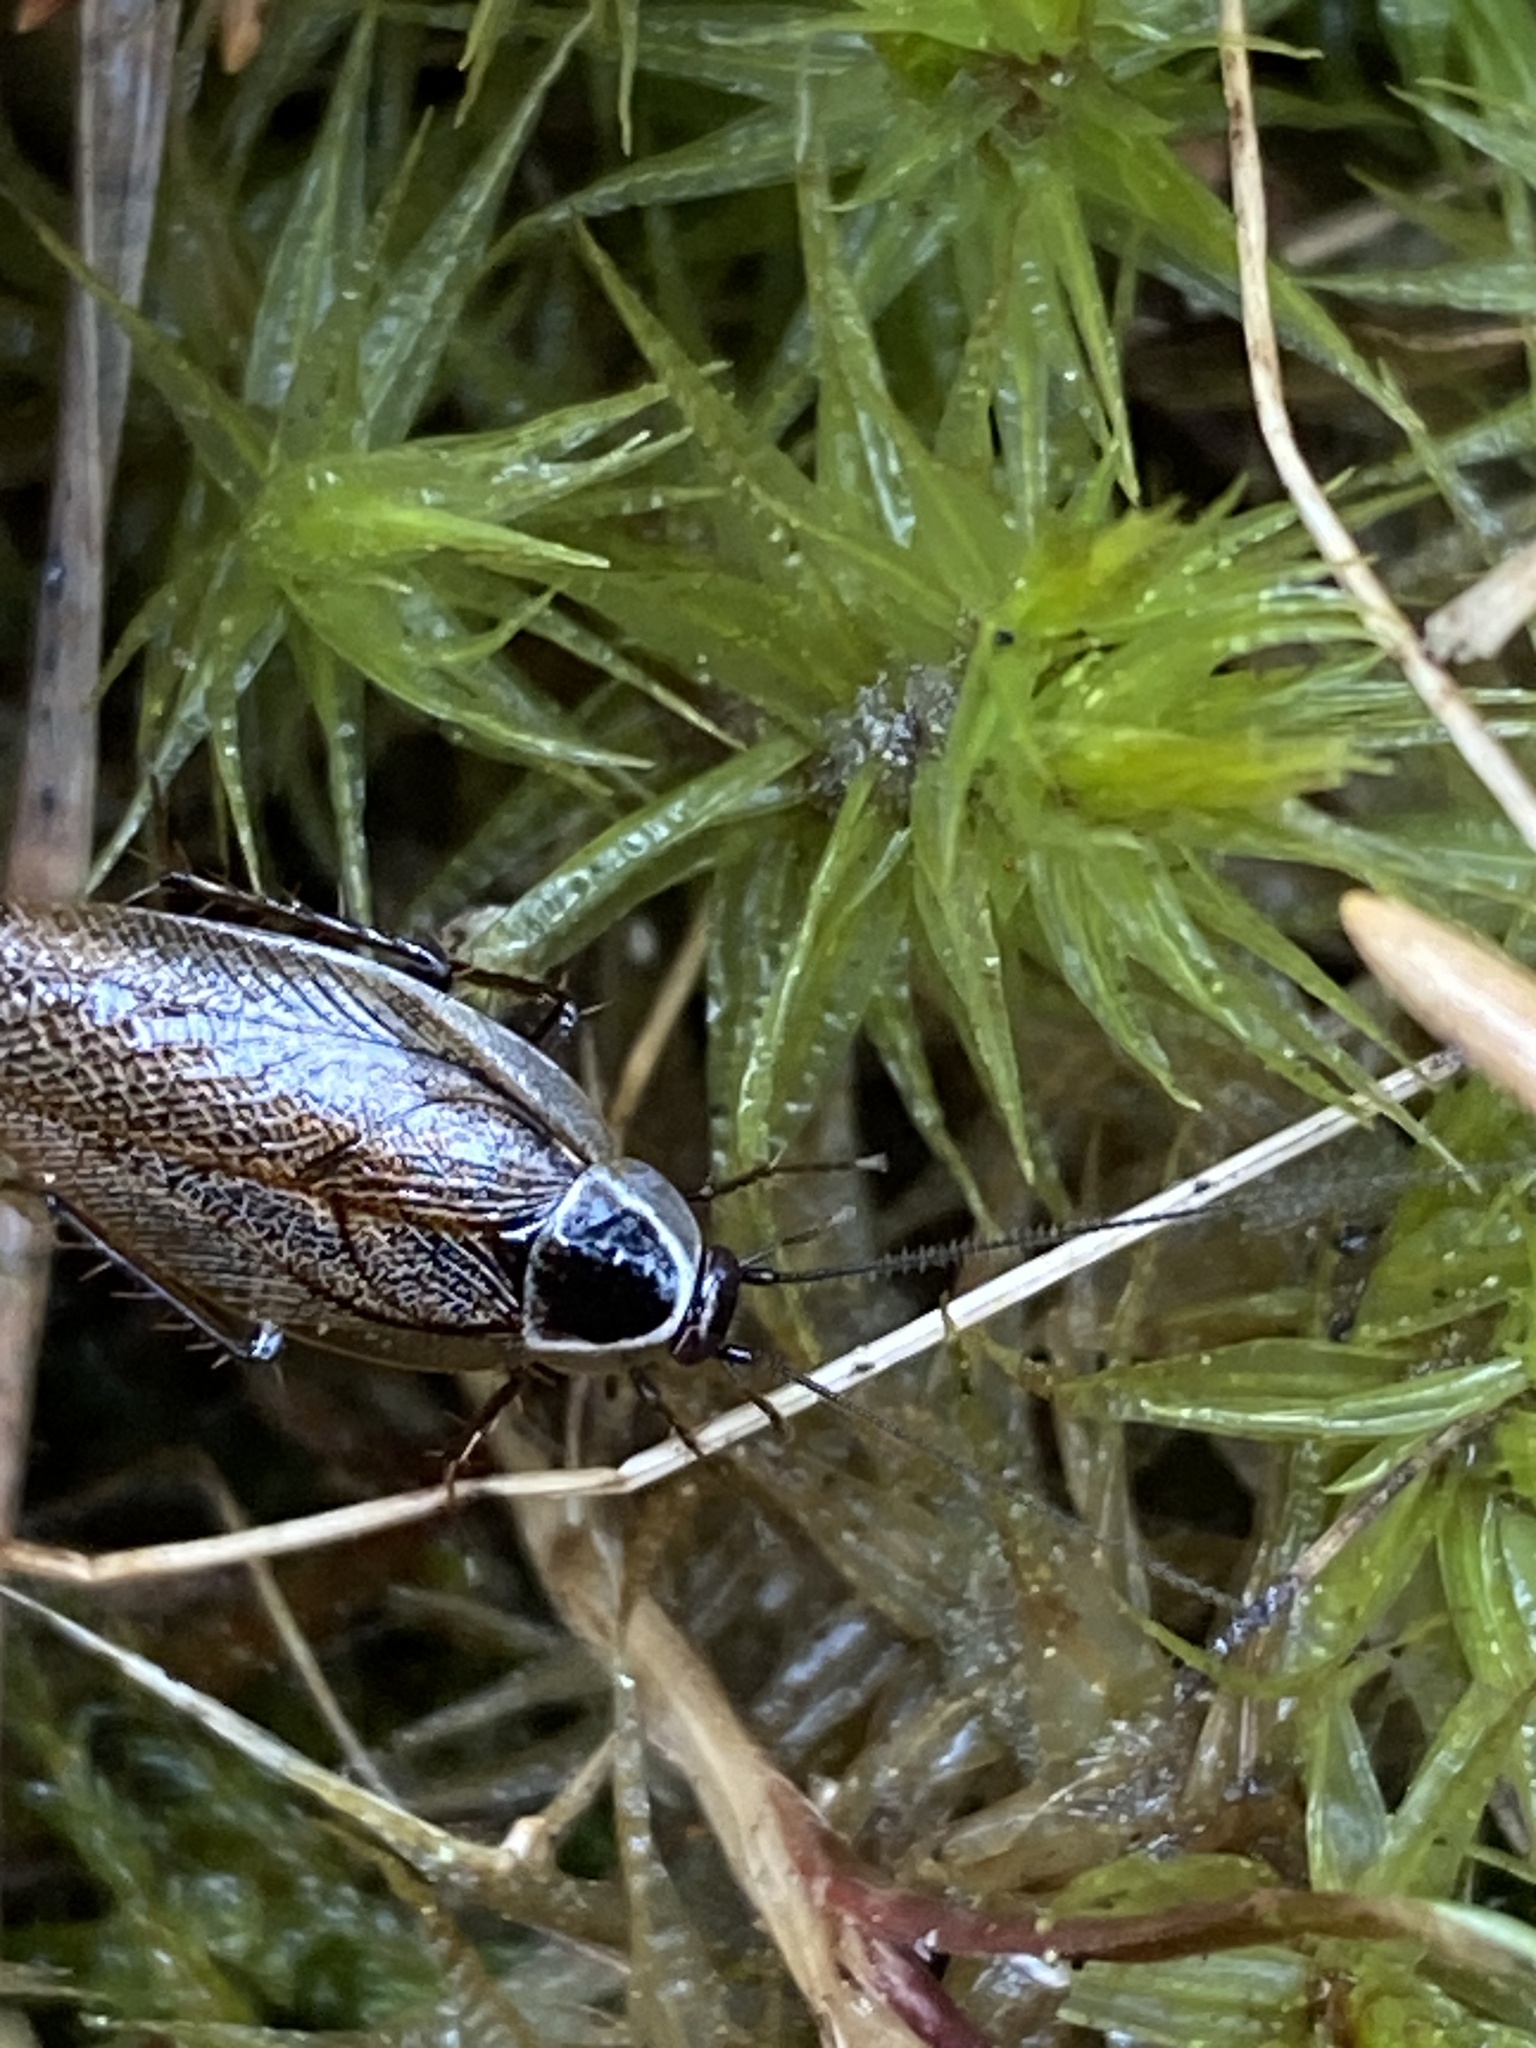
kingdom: Animalia
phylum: Arthropoda
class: Insecta
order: Blattodea
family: Ectobiidae
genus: Ectobius
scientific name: Ectobius sylvestris
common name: Forest cockroach
